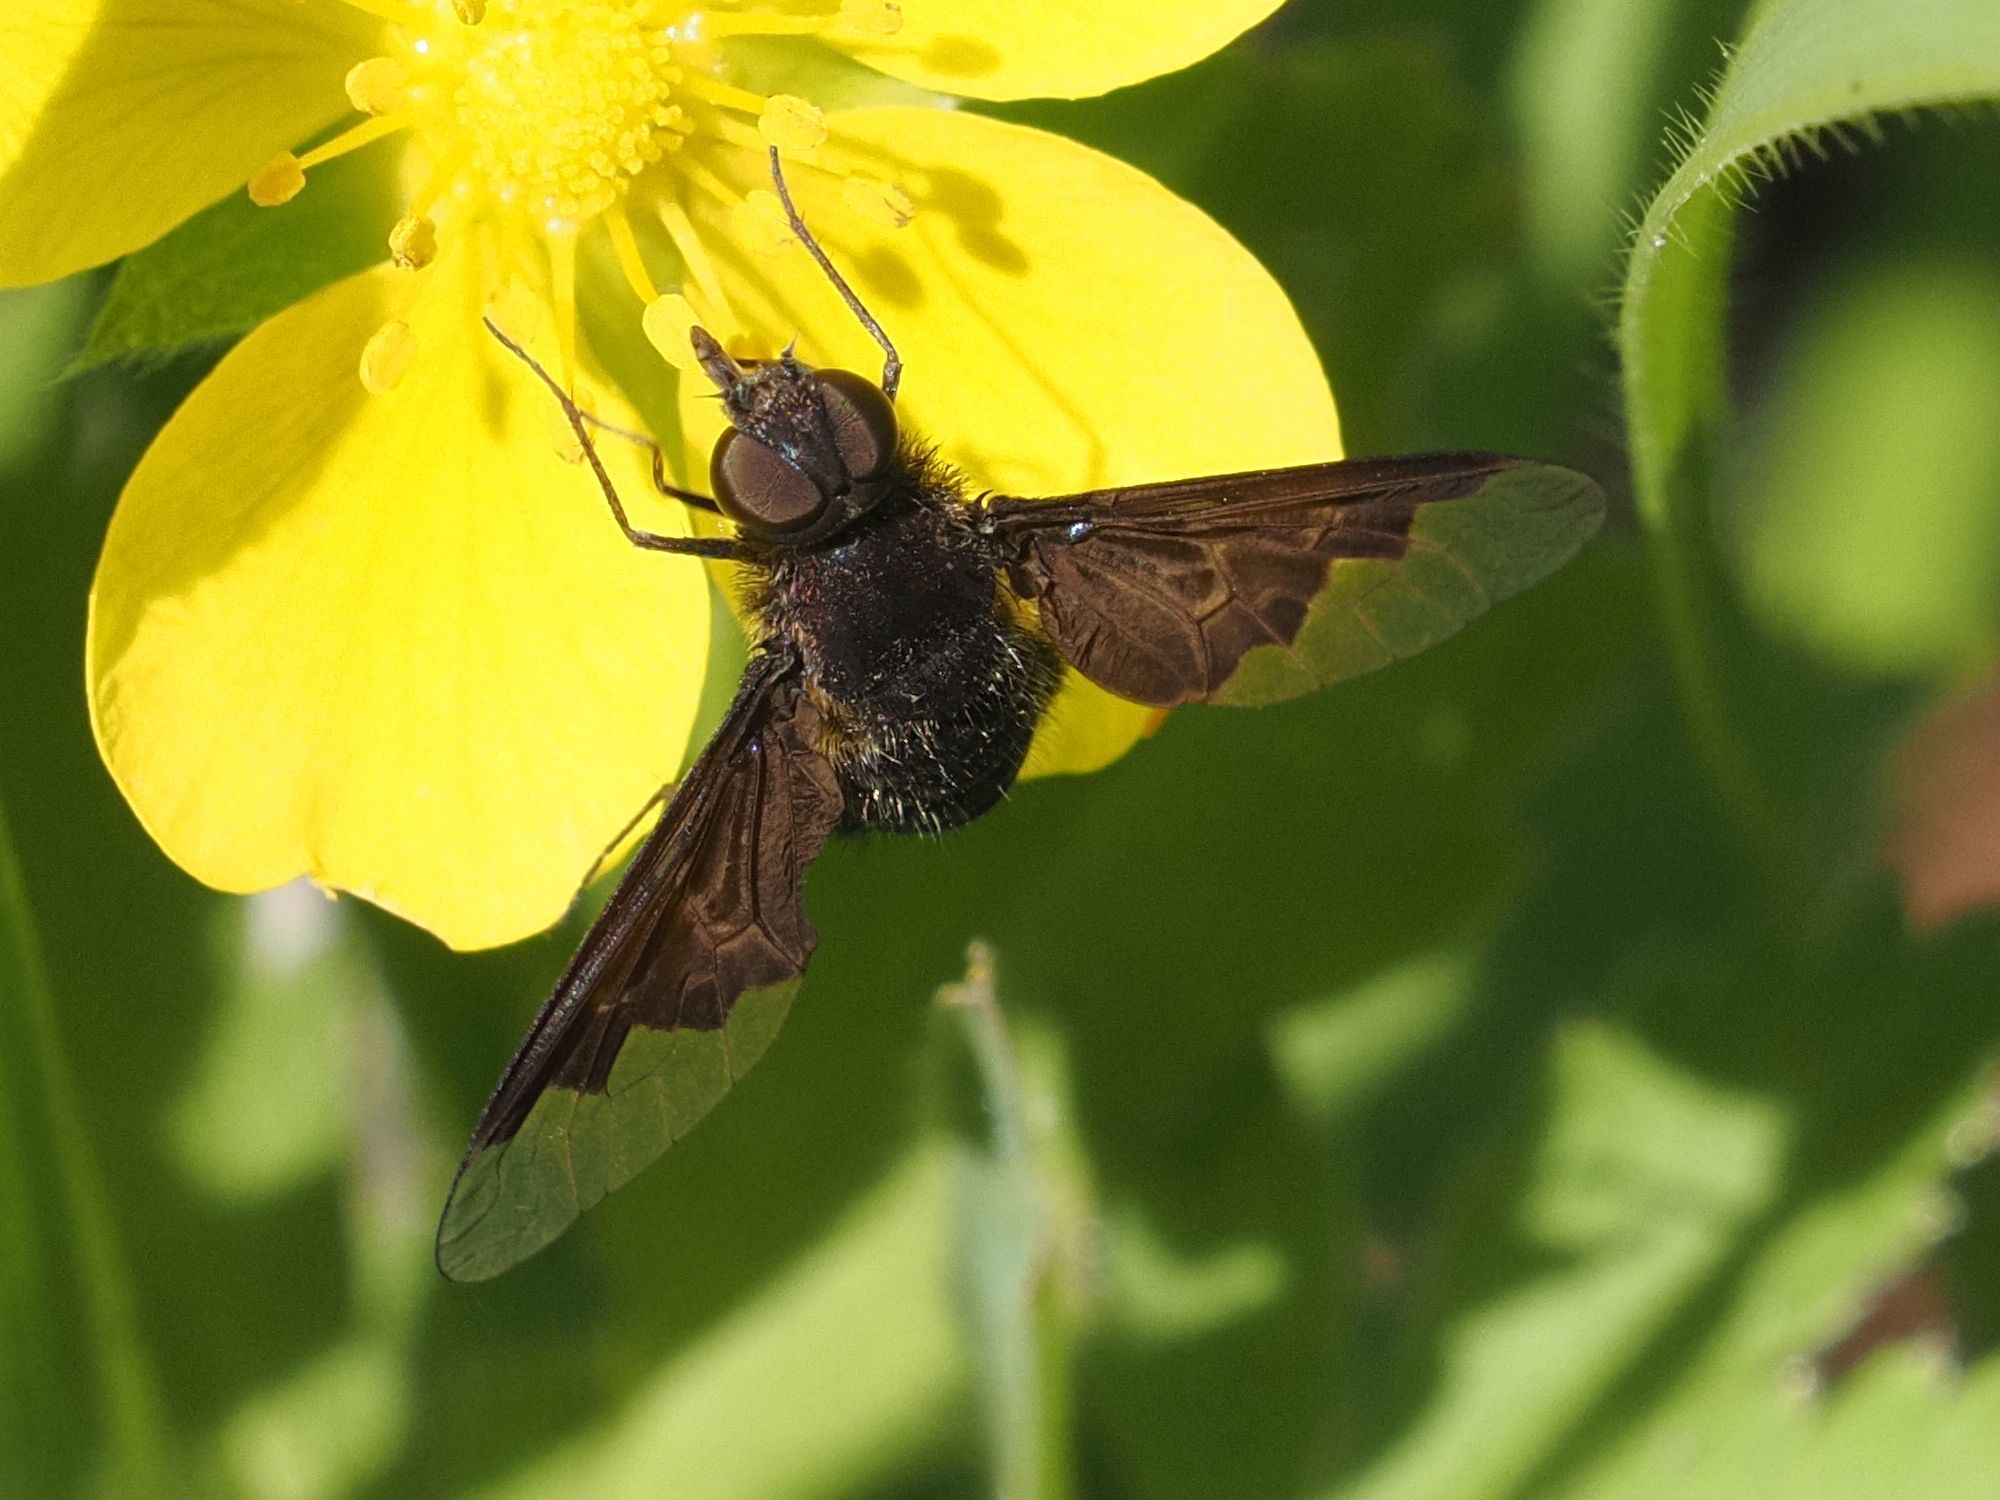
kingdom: Animalia
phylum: Arthropoda
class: Insecta
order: Diptera
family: Bombyliidae
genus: Hemipenthes
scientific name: Hemipenthes morio
